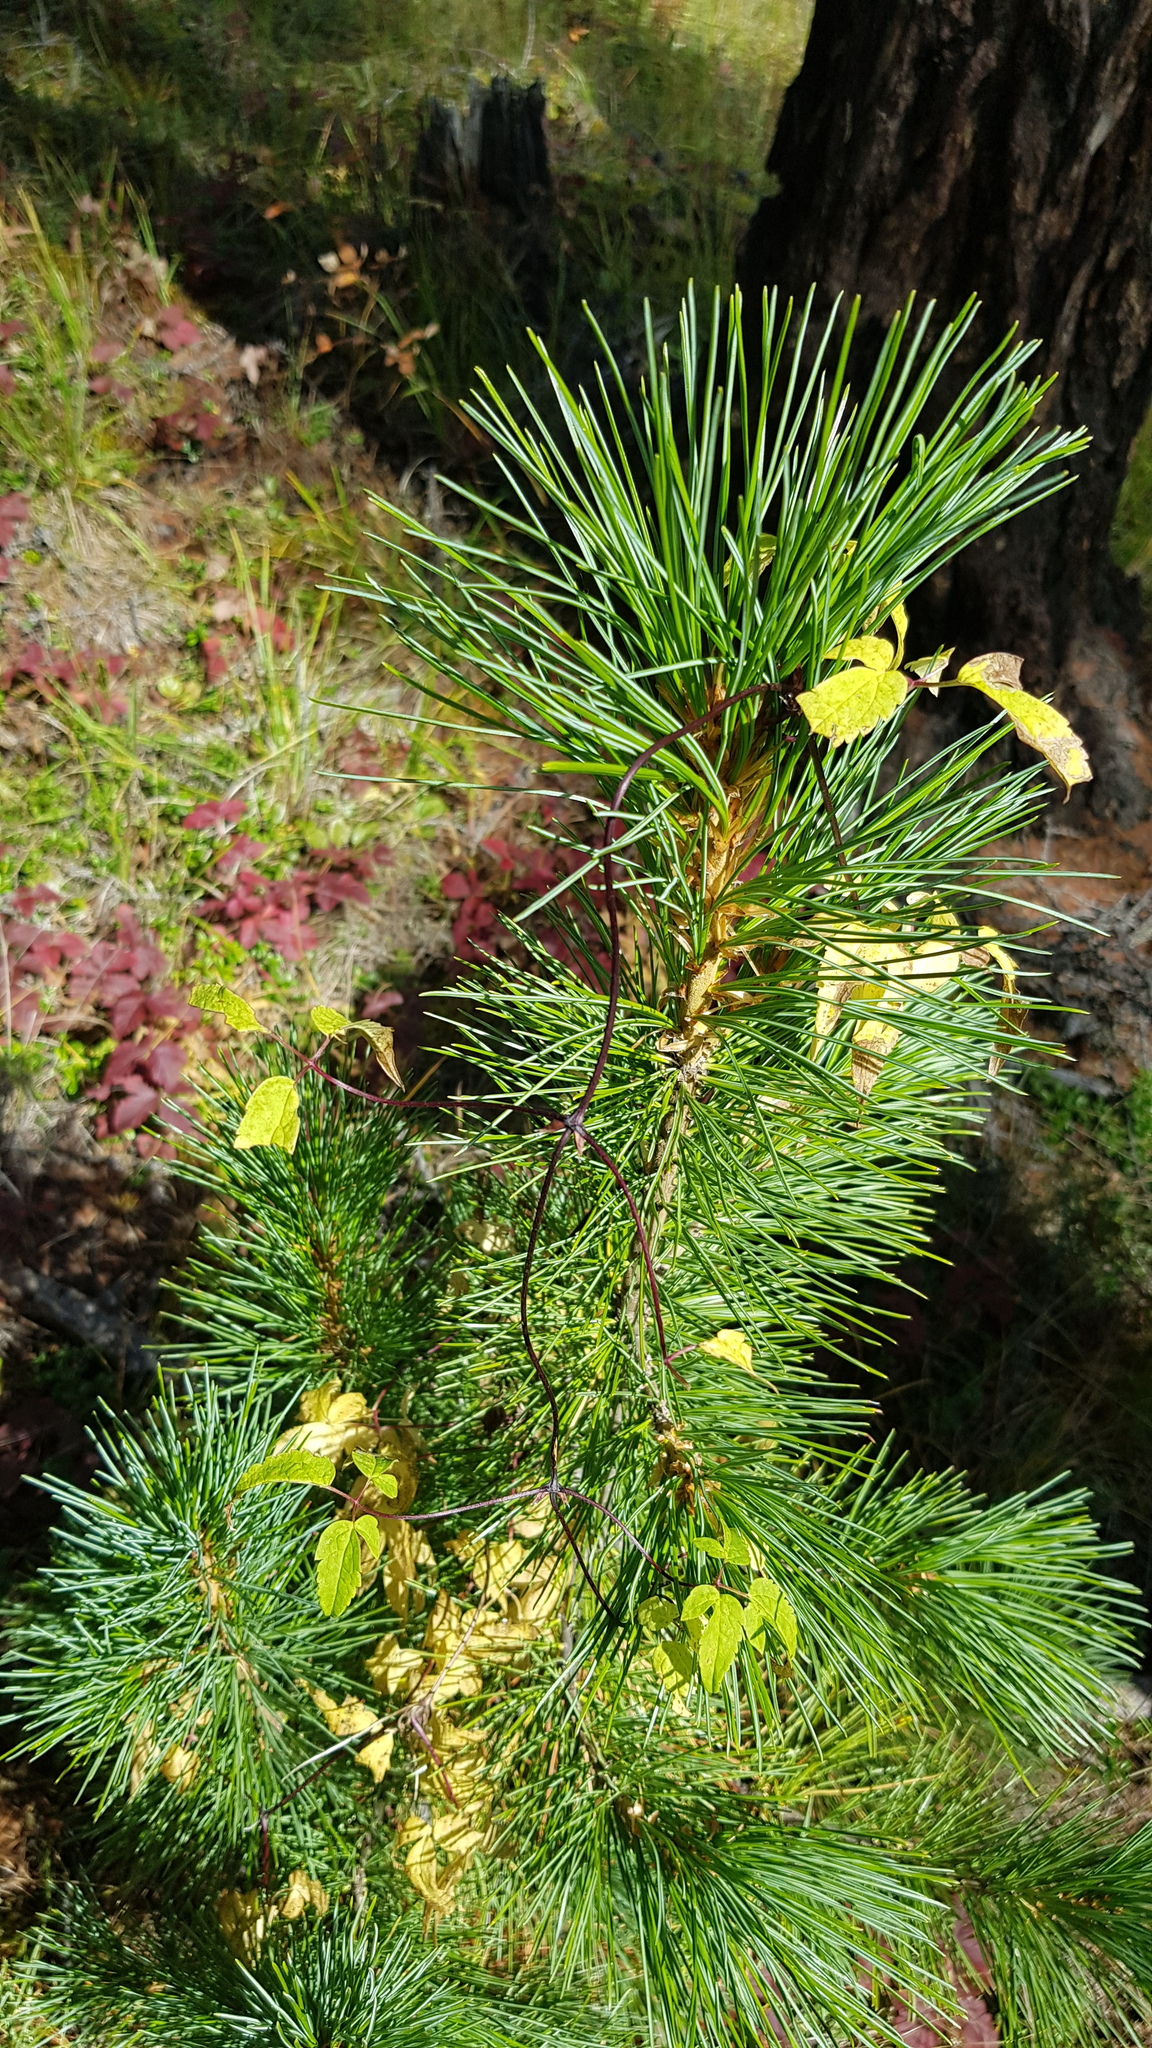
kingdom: Plantae
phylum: Tracheophyta
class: Pinopsida
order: Pinales
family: Pinaceae
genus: Pinus
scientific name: Pinus sibirica
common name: Siberian pine
